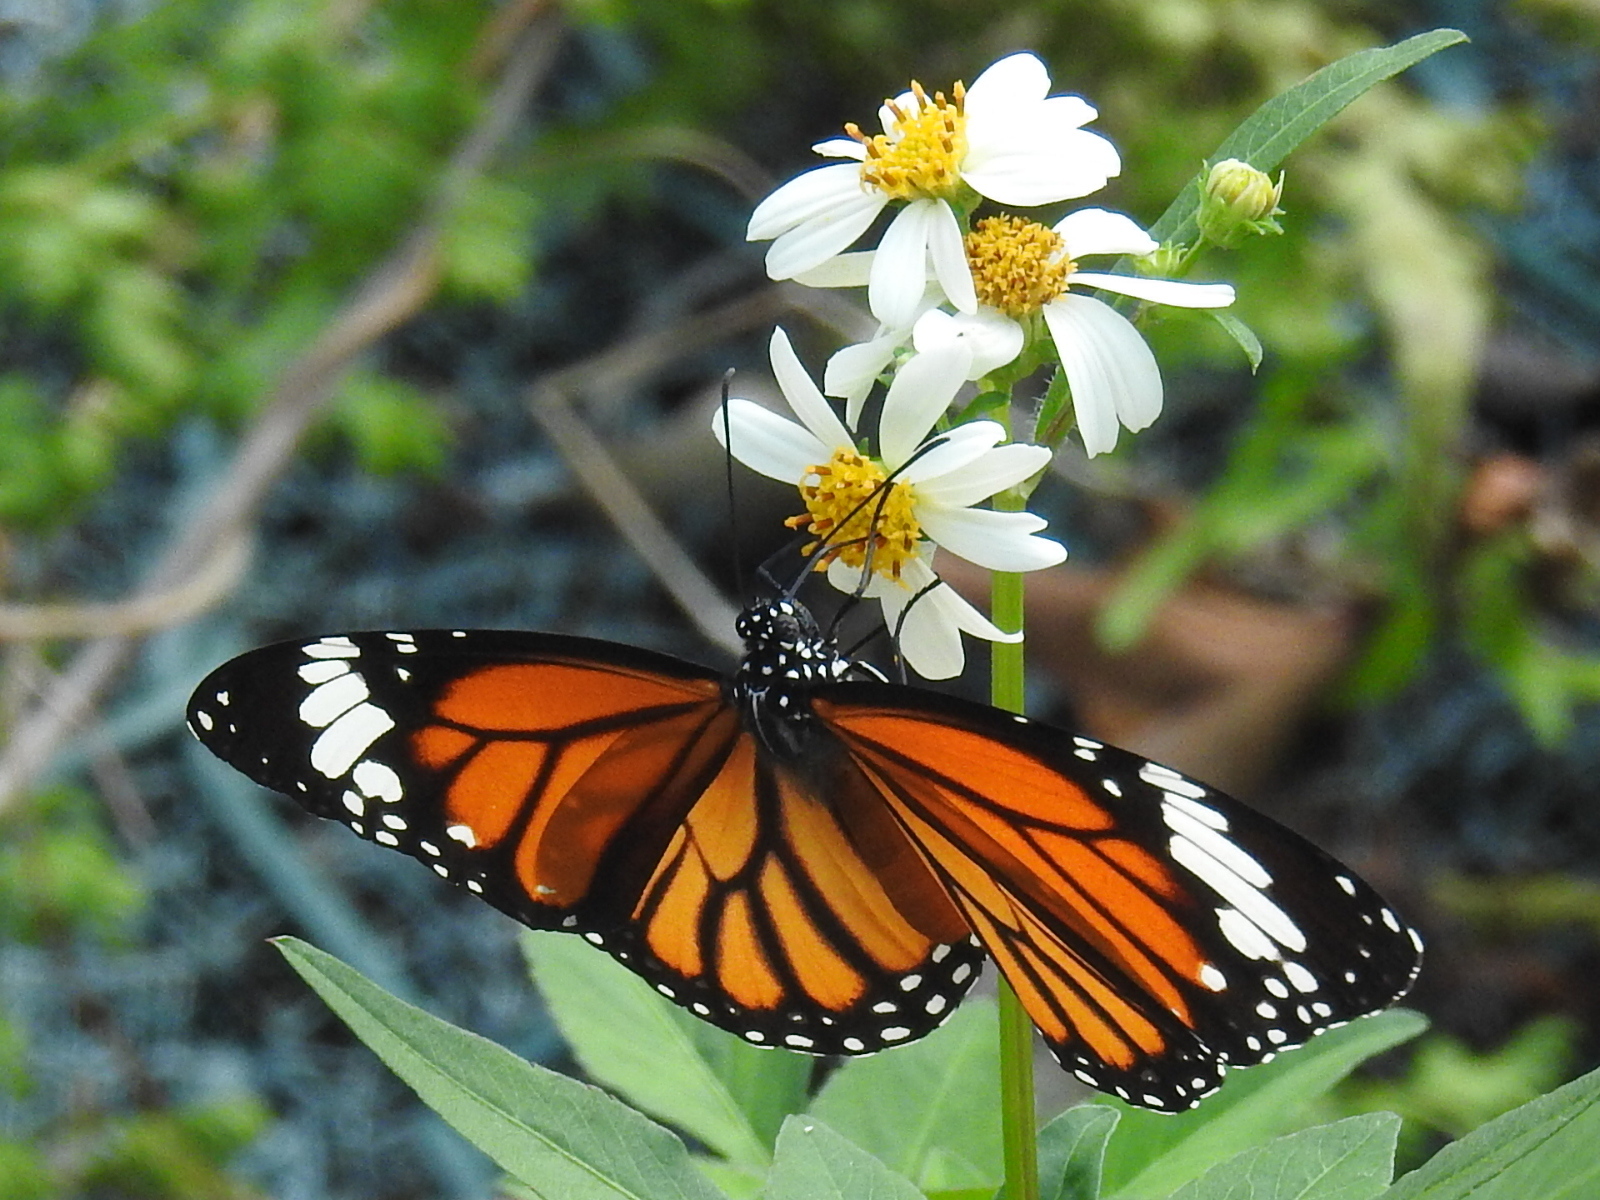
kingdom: Animalia
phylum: Arthropoda
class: Insecta
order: Lepidoptera
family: Nymphalidae
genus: Danaus
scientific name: Danaus genutia
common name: Common tiger butterfly
